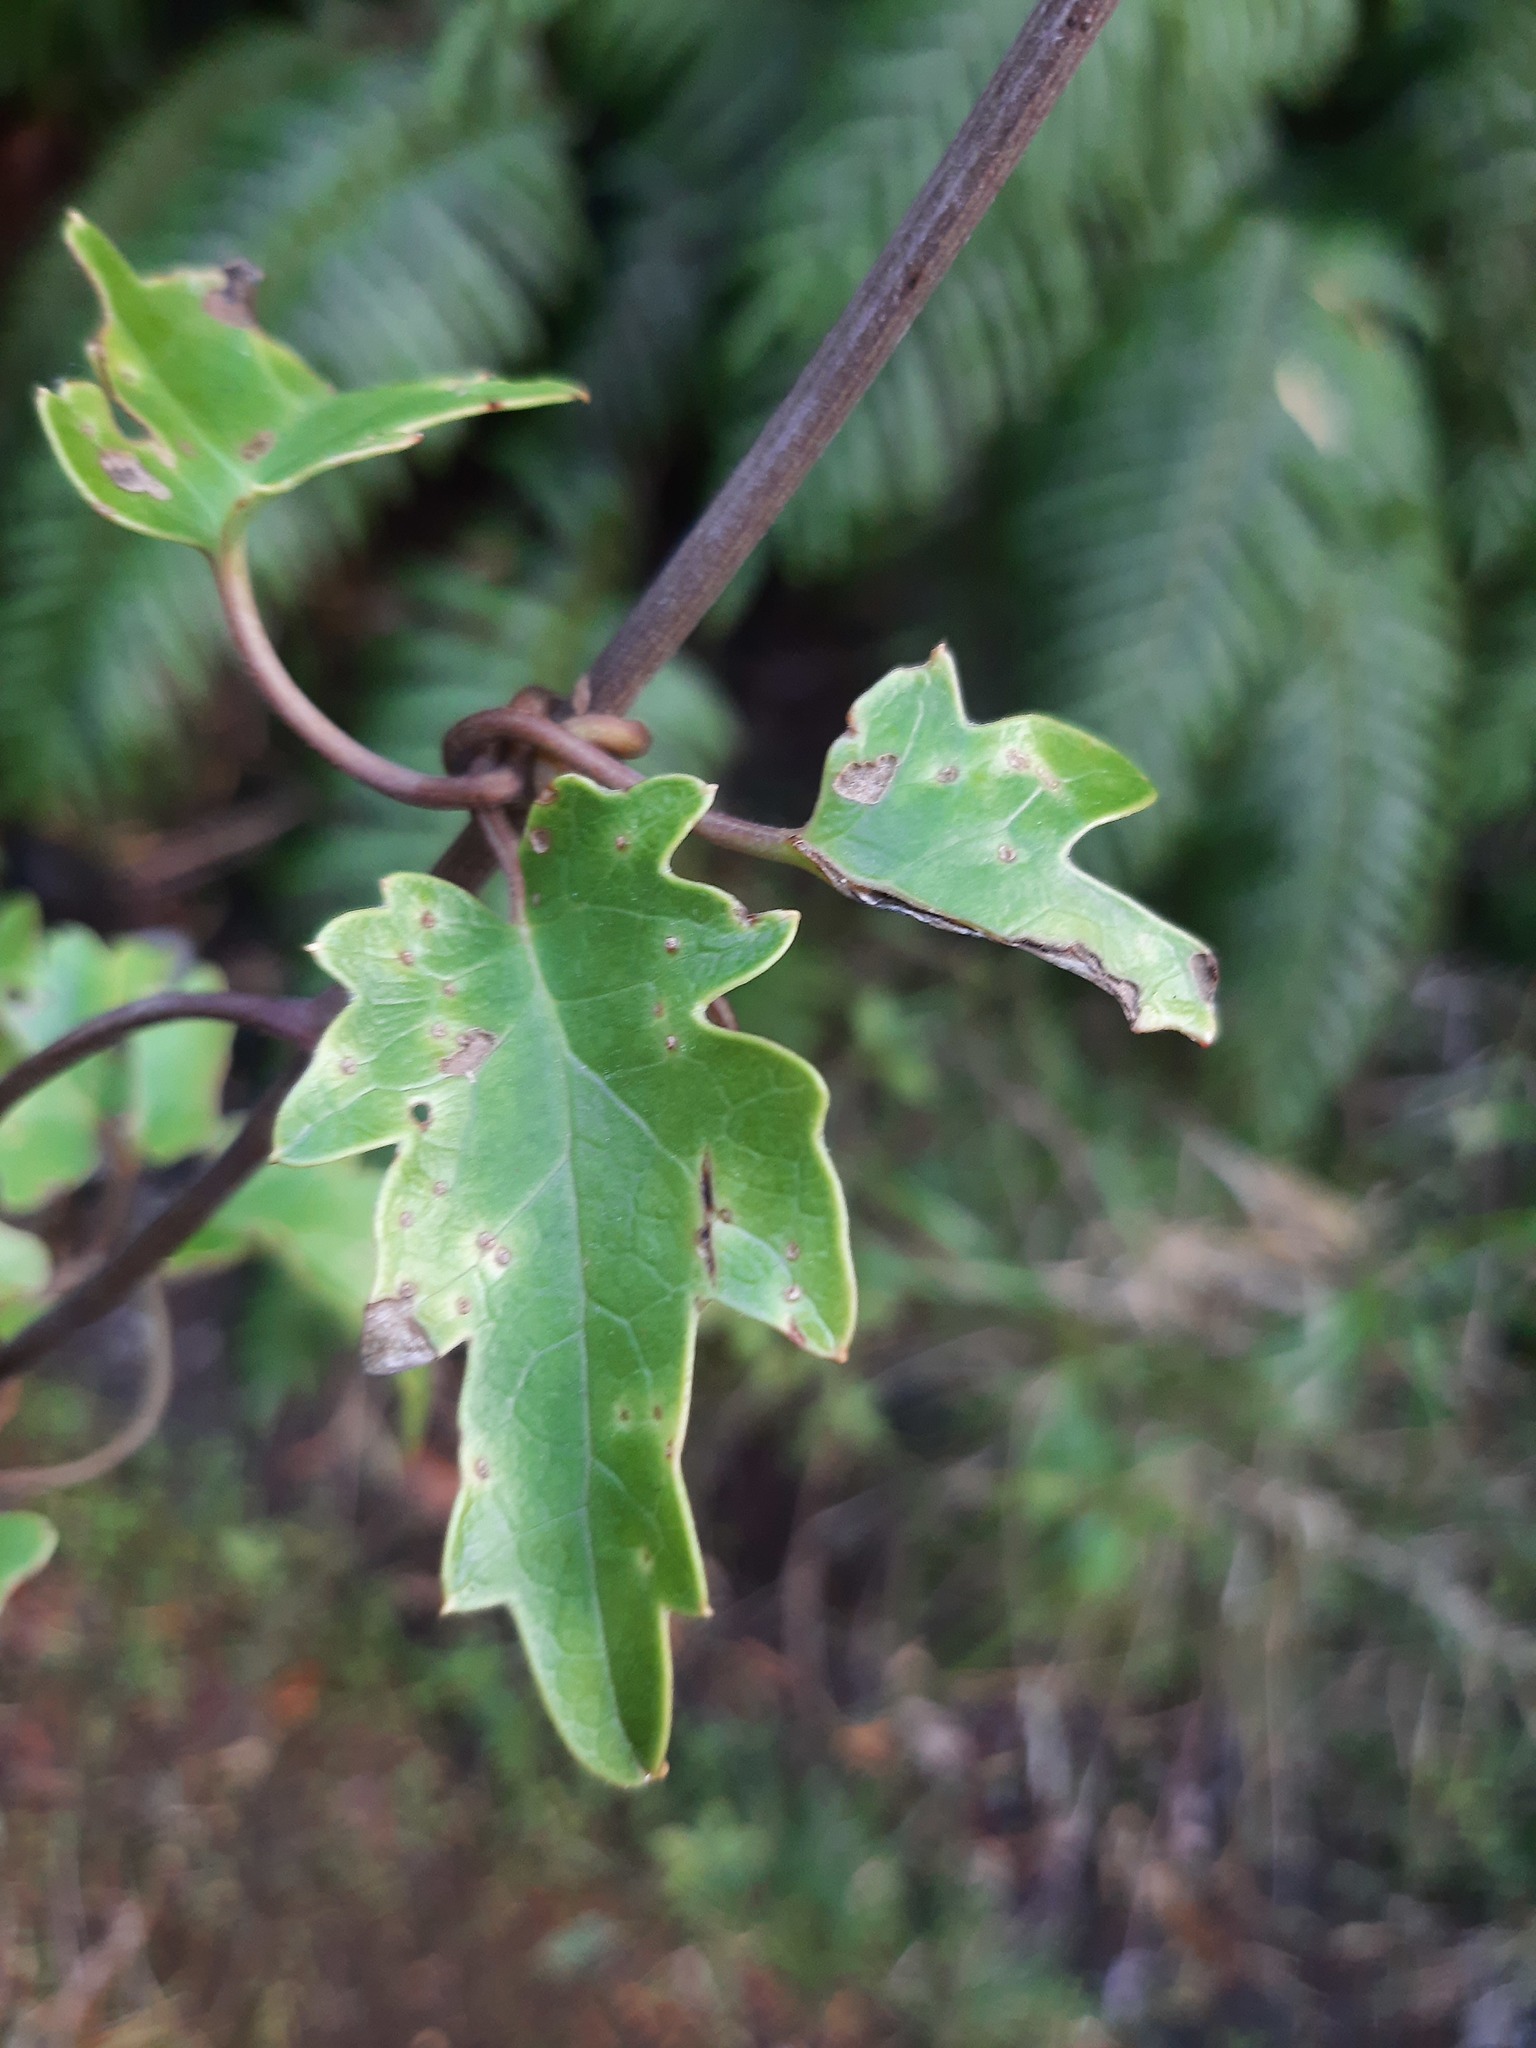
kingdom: Plantae
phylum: Tracheophyta
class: Magnoliopsida
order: Ranunculales
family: Ranunculaceae
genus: Clematis
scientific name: Clematis paniculata
